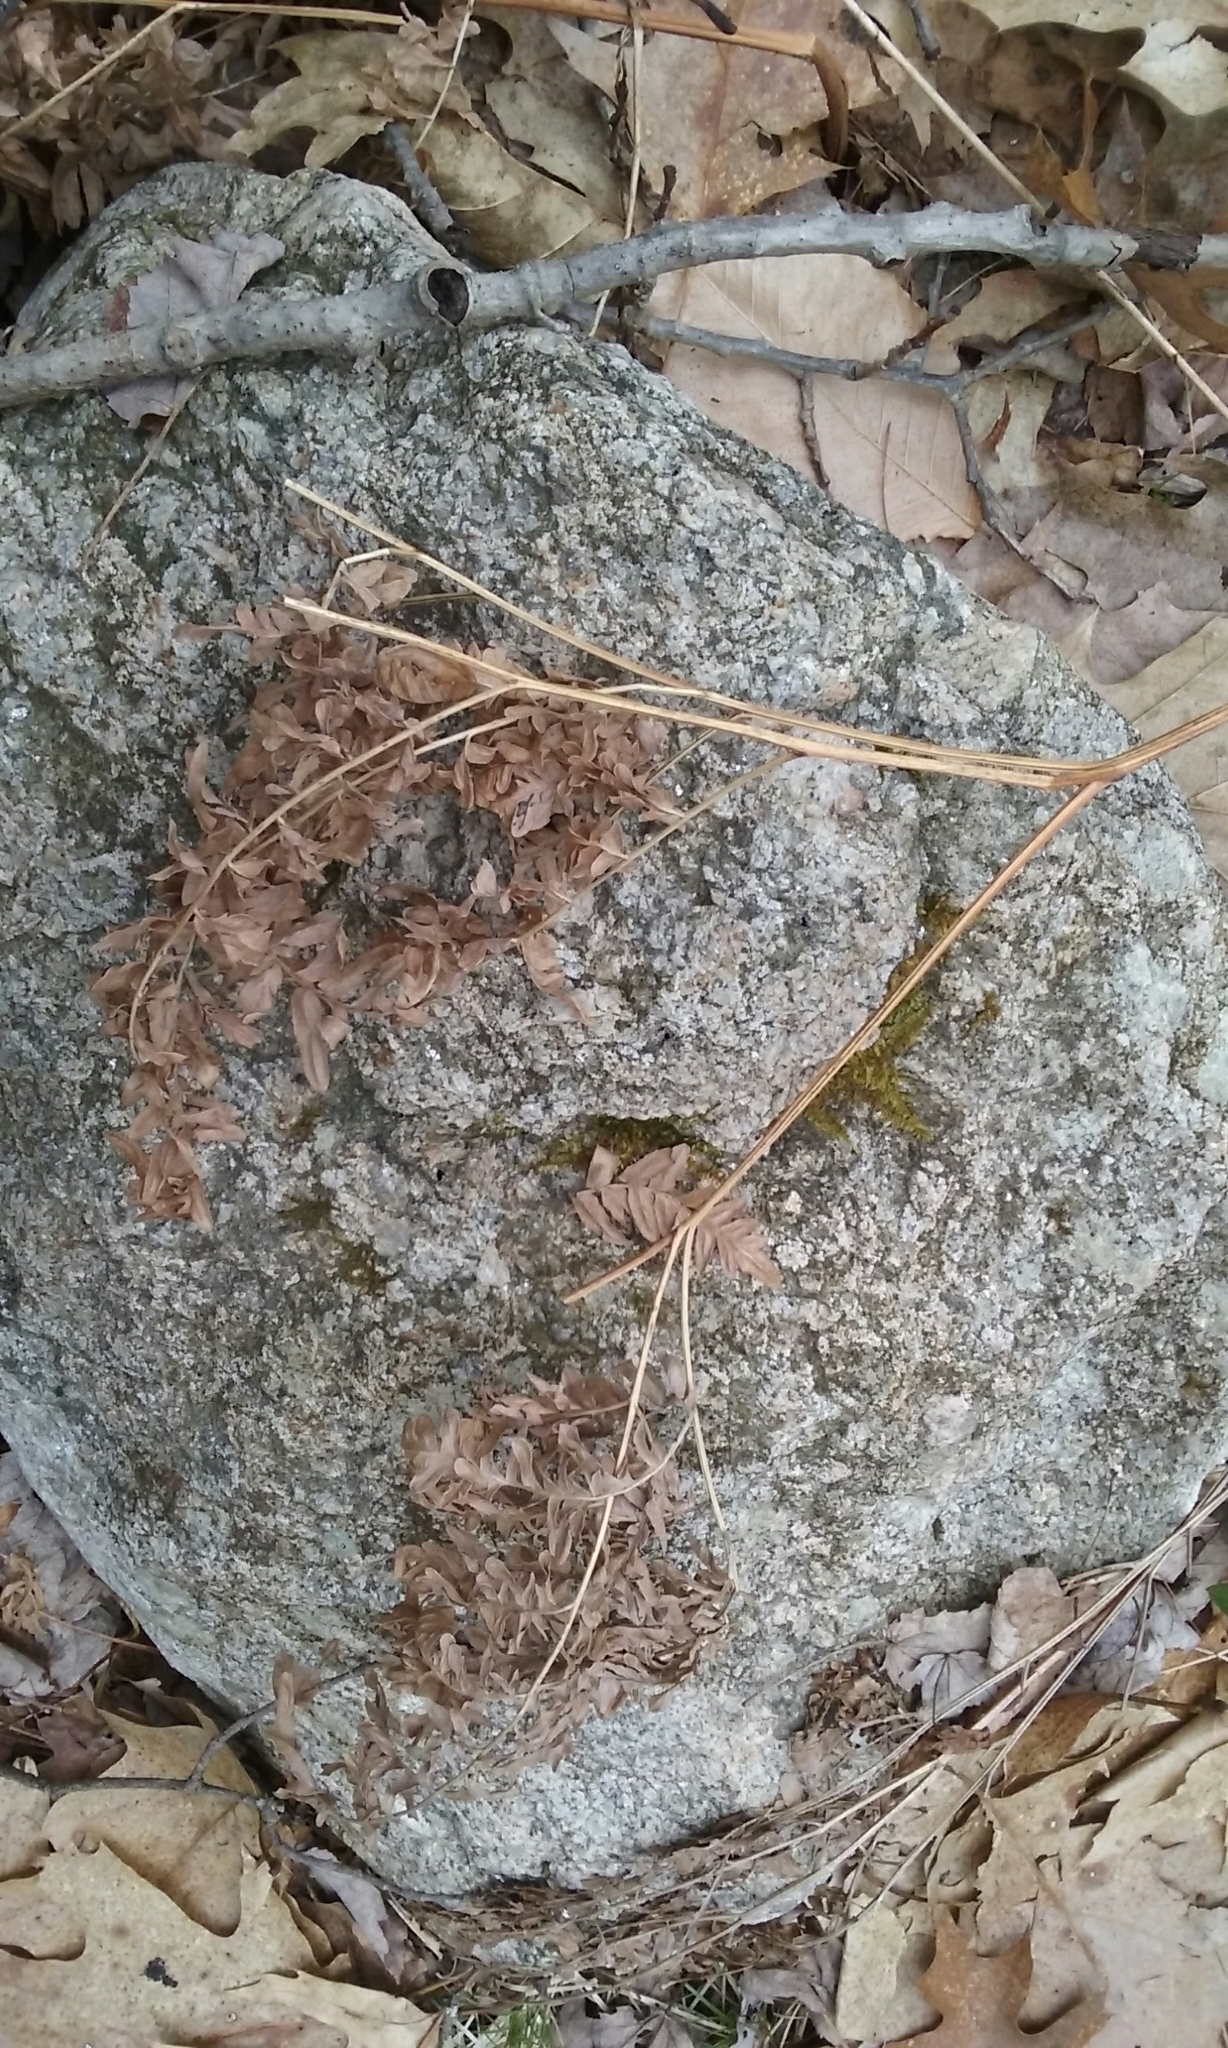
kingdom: Plantae
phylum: Tracheophyta
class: Polypodiopsida
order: Polypodiales
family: Dennstaedtiaceae
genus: Pteridium
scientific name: Pteridium aquilinum
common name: Bracken
